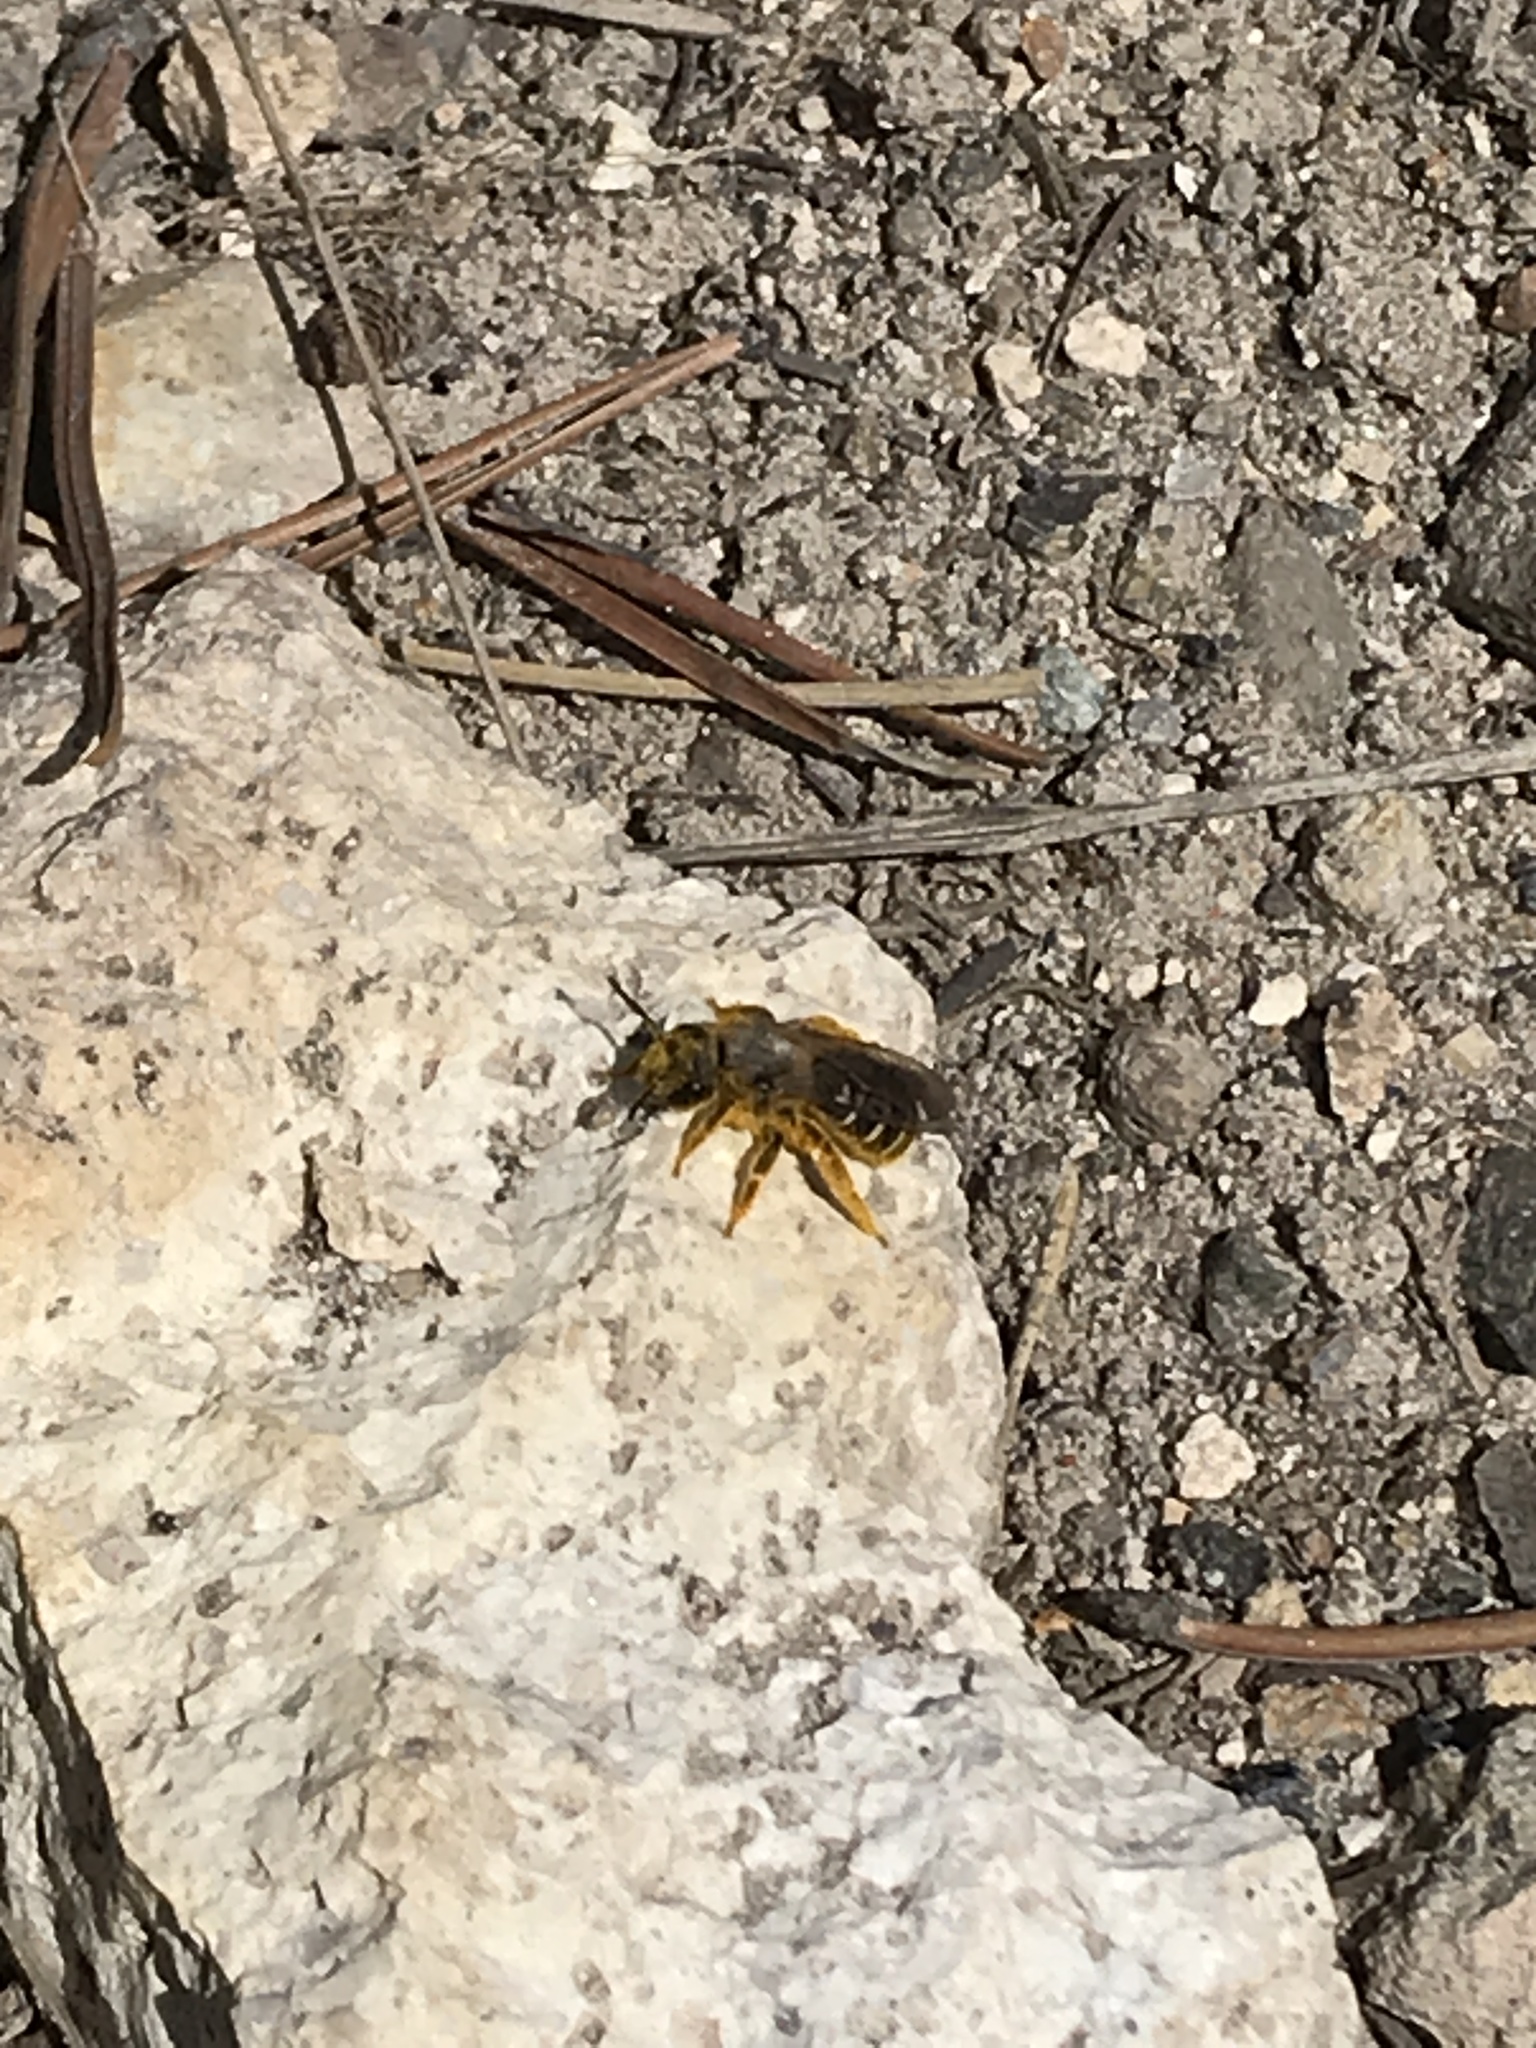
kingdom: Animalia
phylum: Arthropoda
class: Insecta
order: Hymenoptera
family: Halictidae
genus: Halictus
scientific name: Halictus rubicundus
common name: Orange-legged furrow bee
